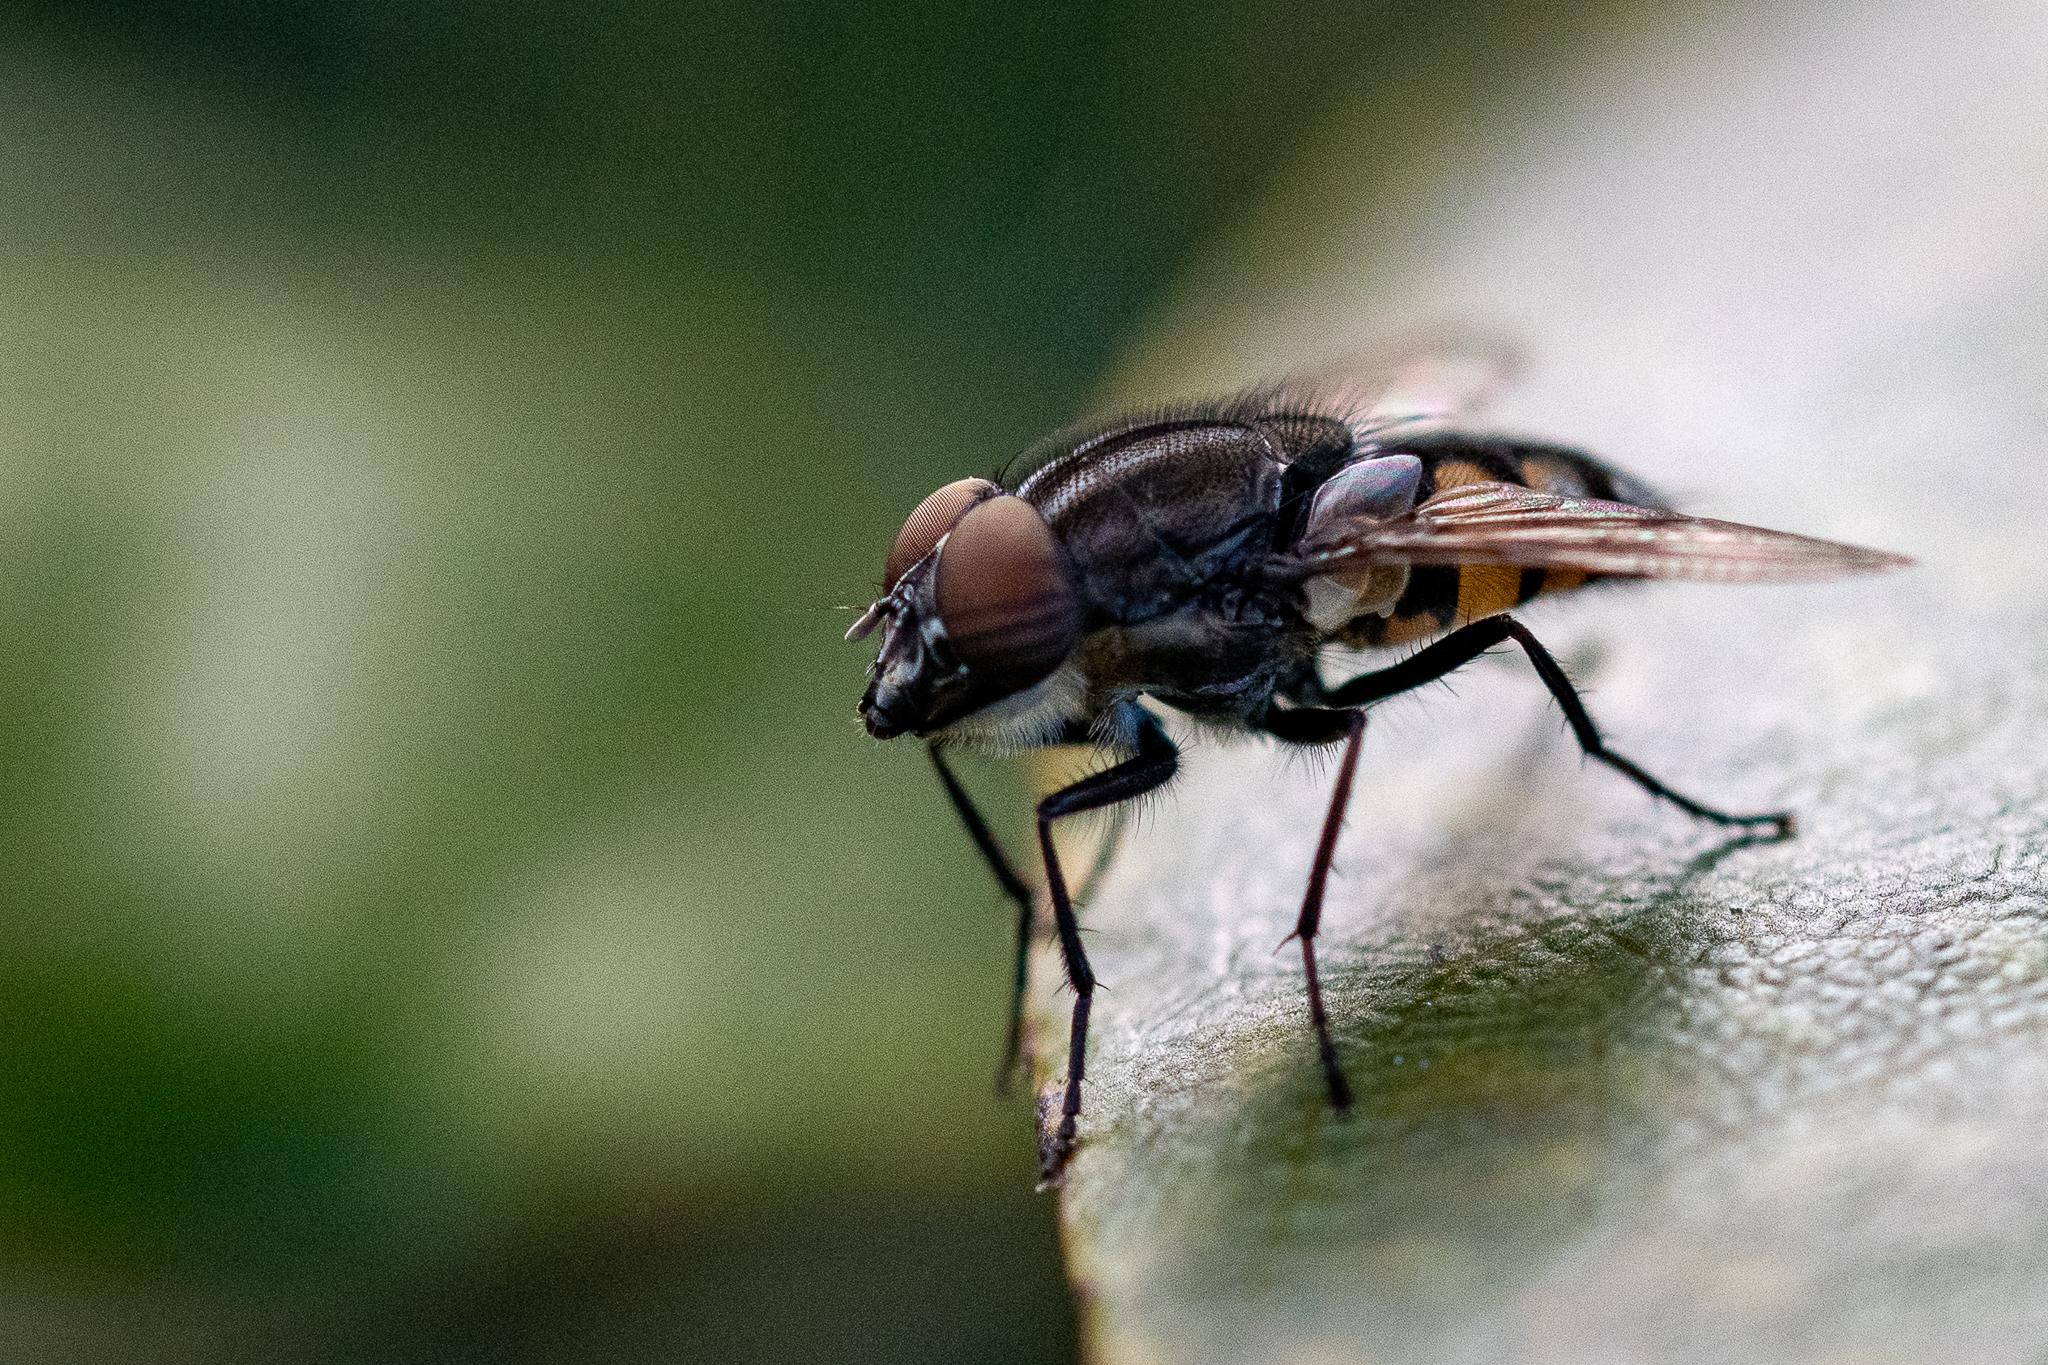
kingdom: Animalia
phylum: Arthropoda
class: Insecta
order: Diptera
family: Calliphoridae
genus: Stomorhina
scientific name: Stomorhina lunata
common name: Locust blowfly
